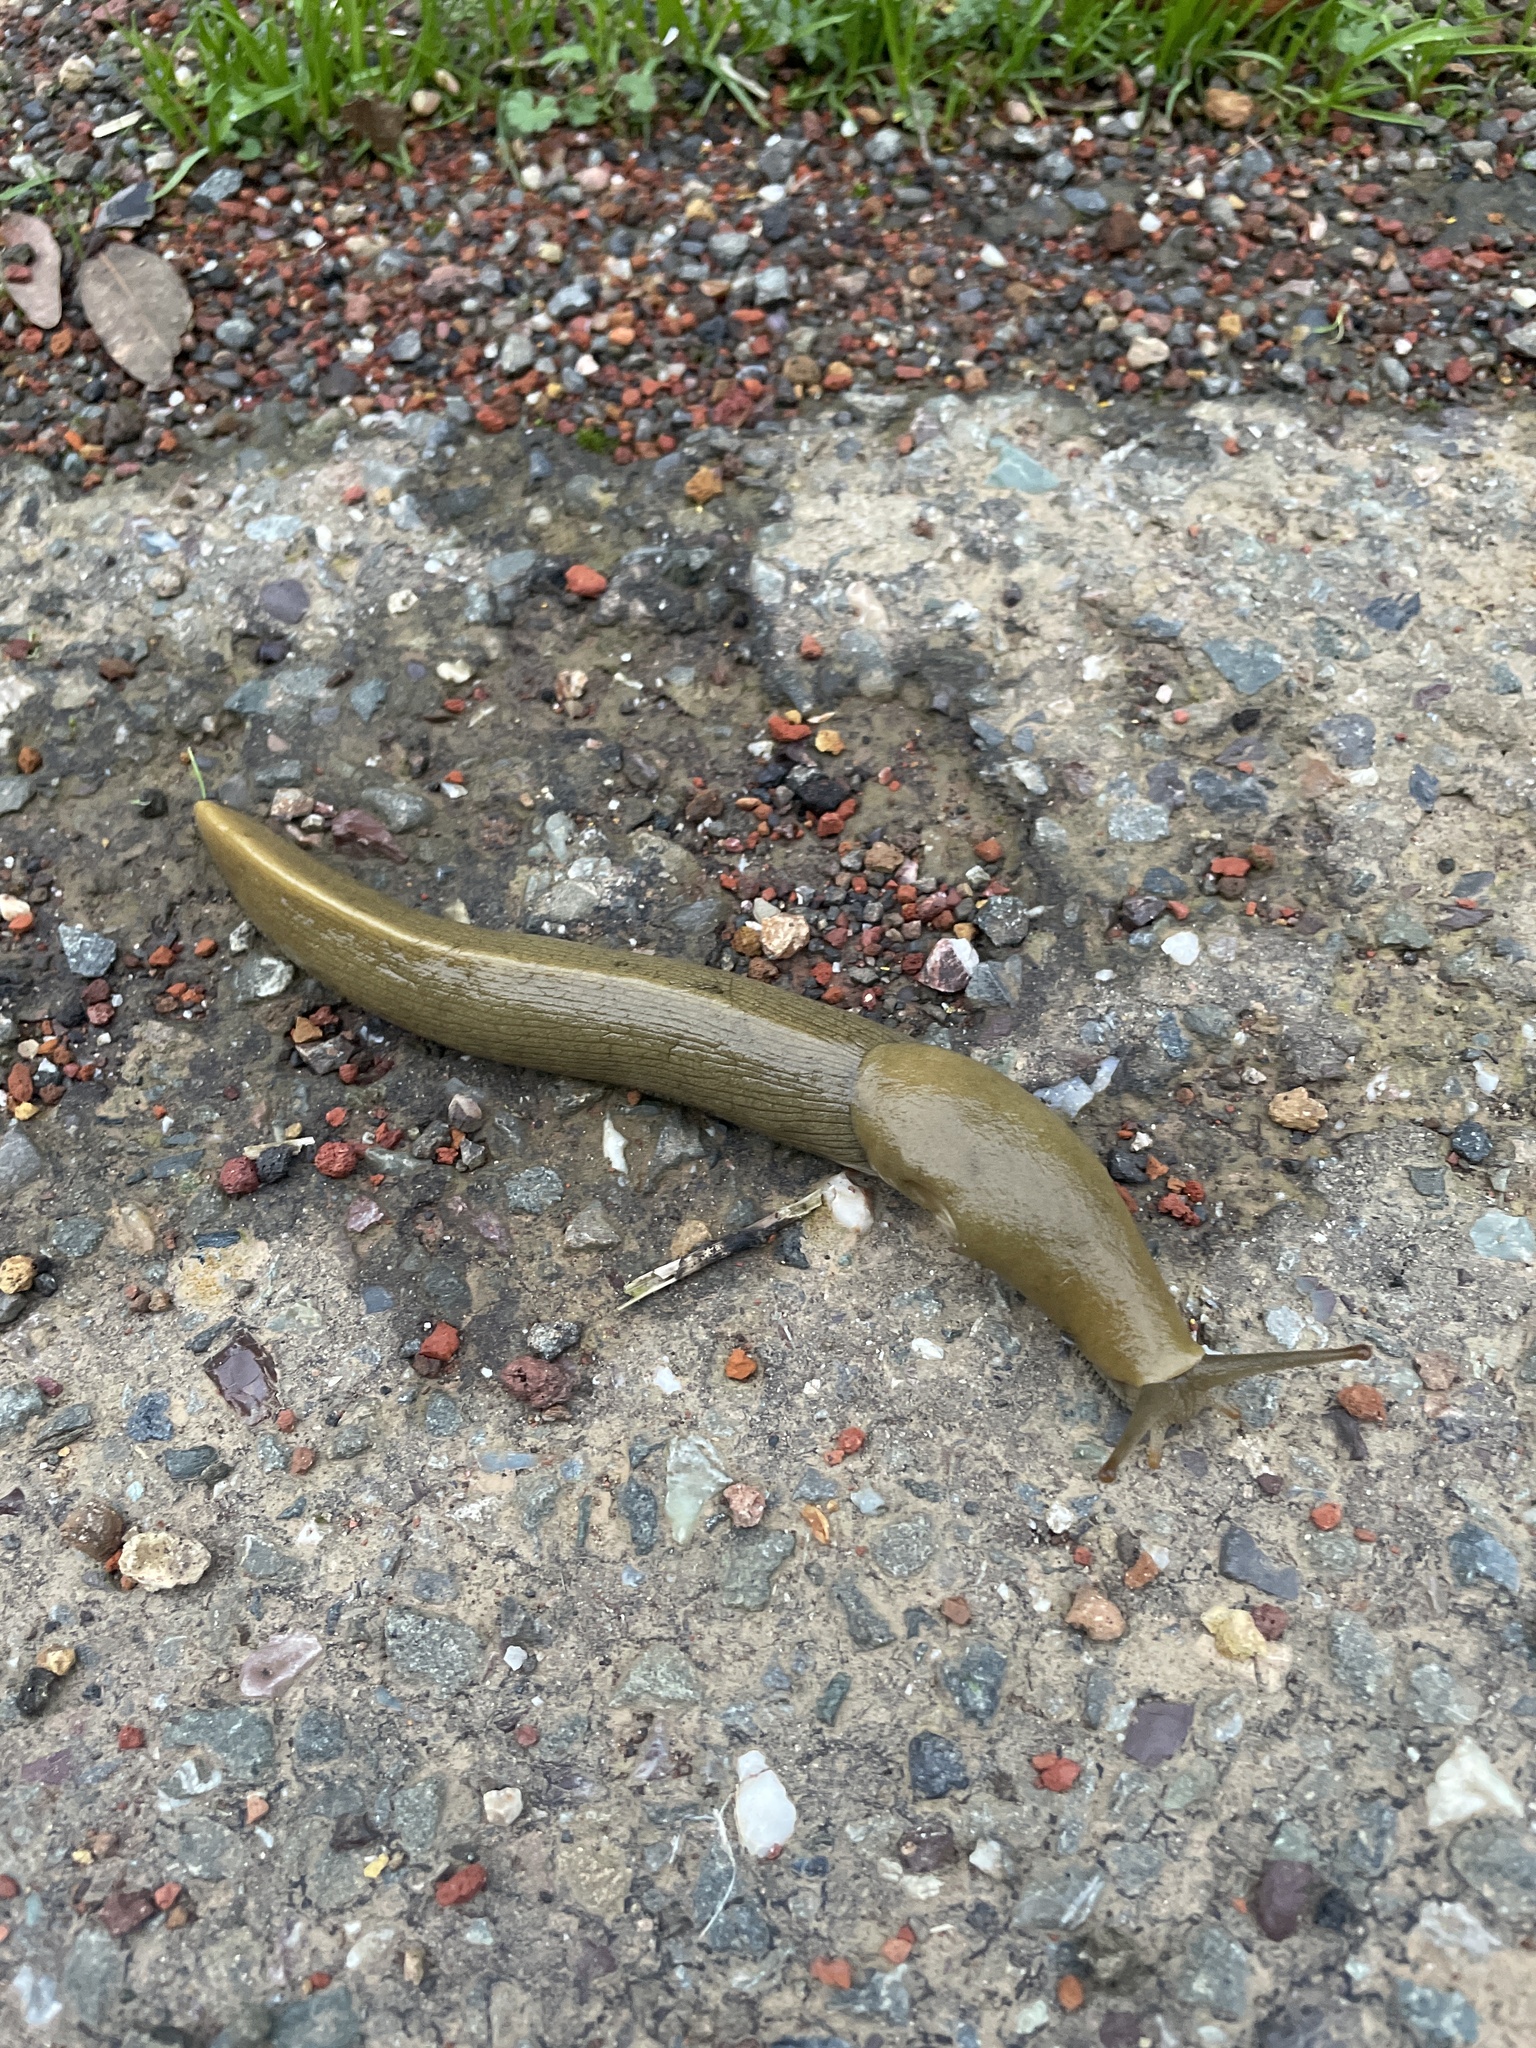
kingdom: Animalia
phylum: Mollusca
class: Gastropoda
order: Stylommatophora
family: Ariolimacidae
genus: Ariolimax
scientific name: Ariolimax buttoni
